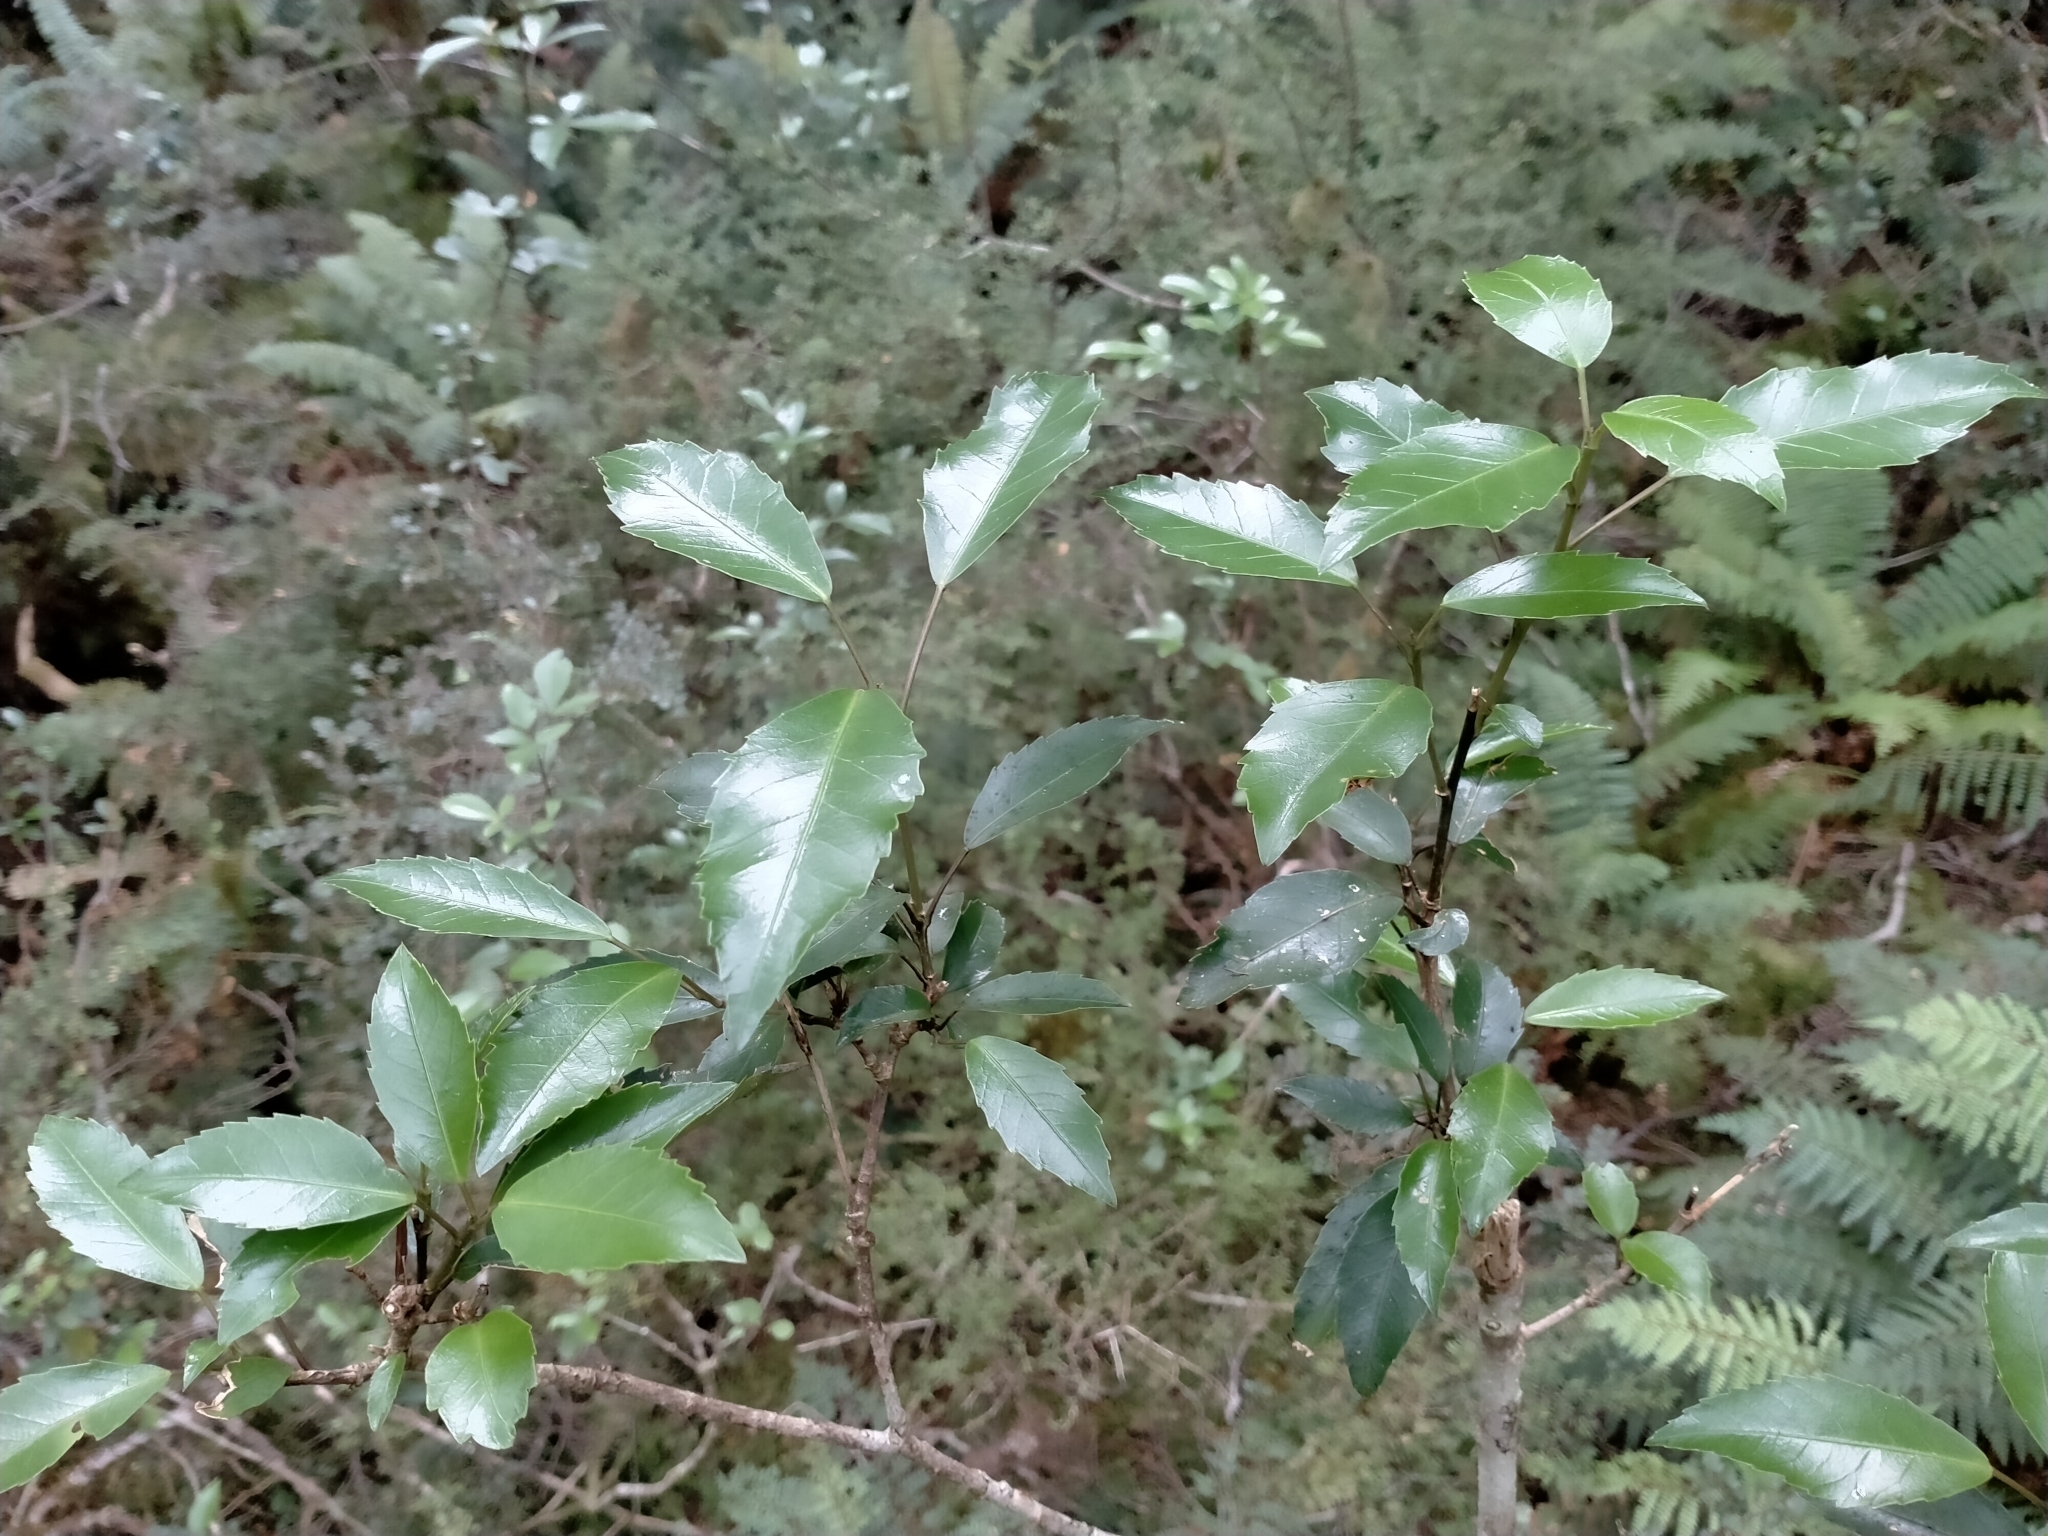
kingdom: Plantae
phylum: Tracheophyta
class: Magnoliopsida
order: Apiales
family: Araliaceae
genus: Raukaua
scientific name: Raukaua simplex
